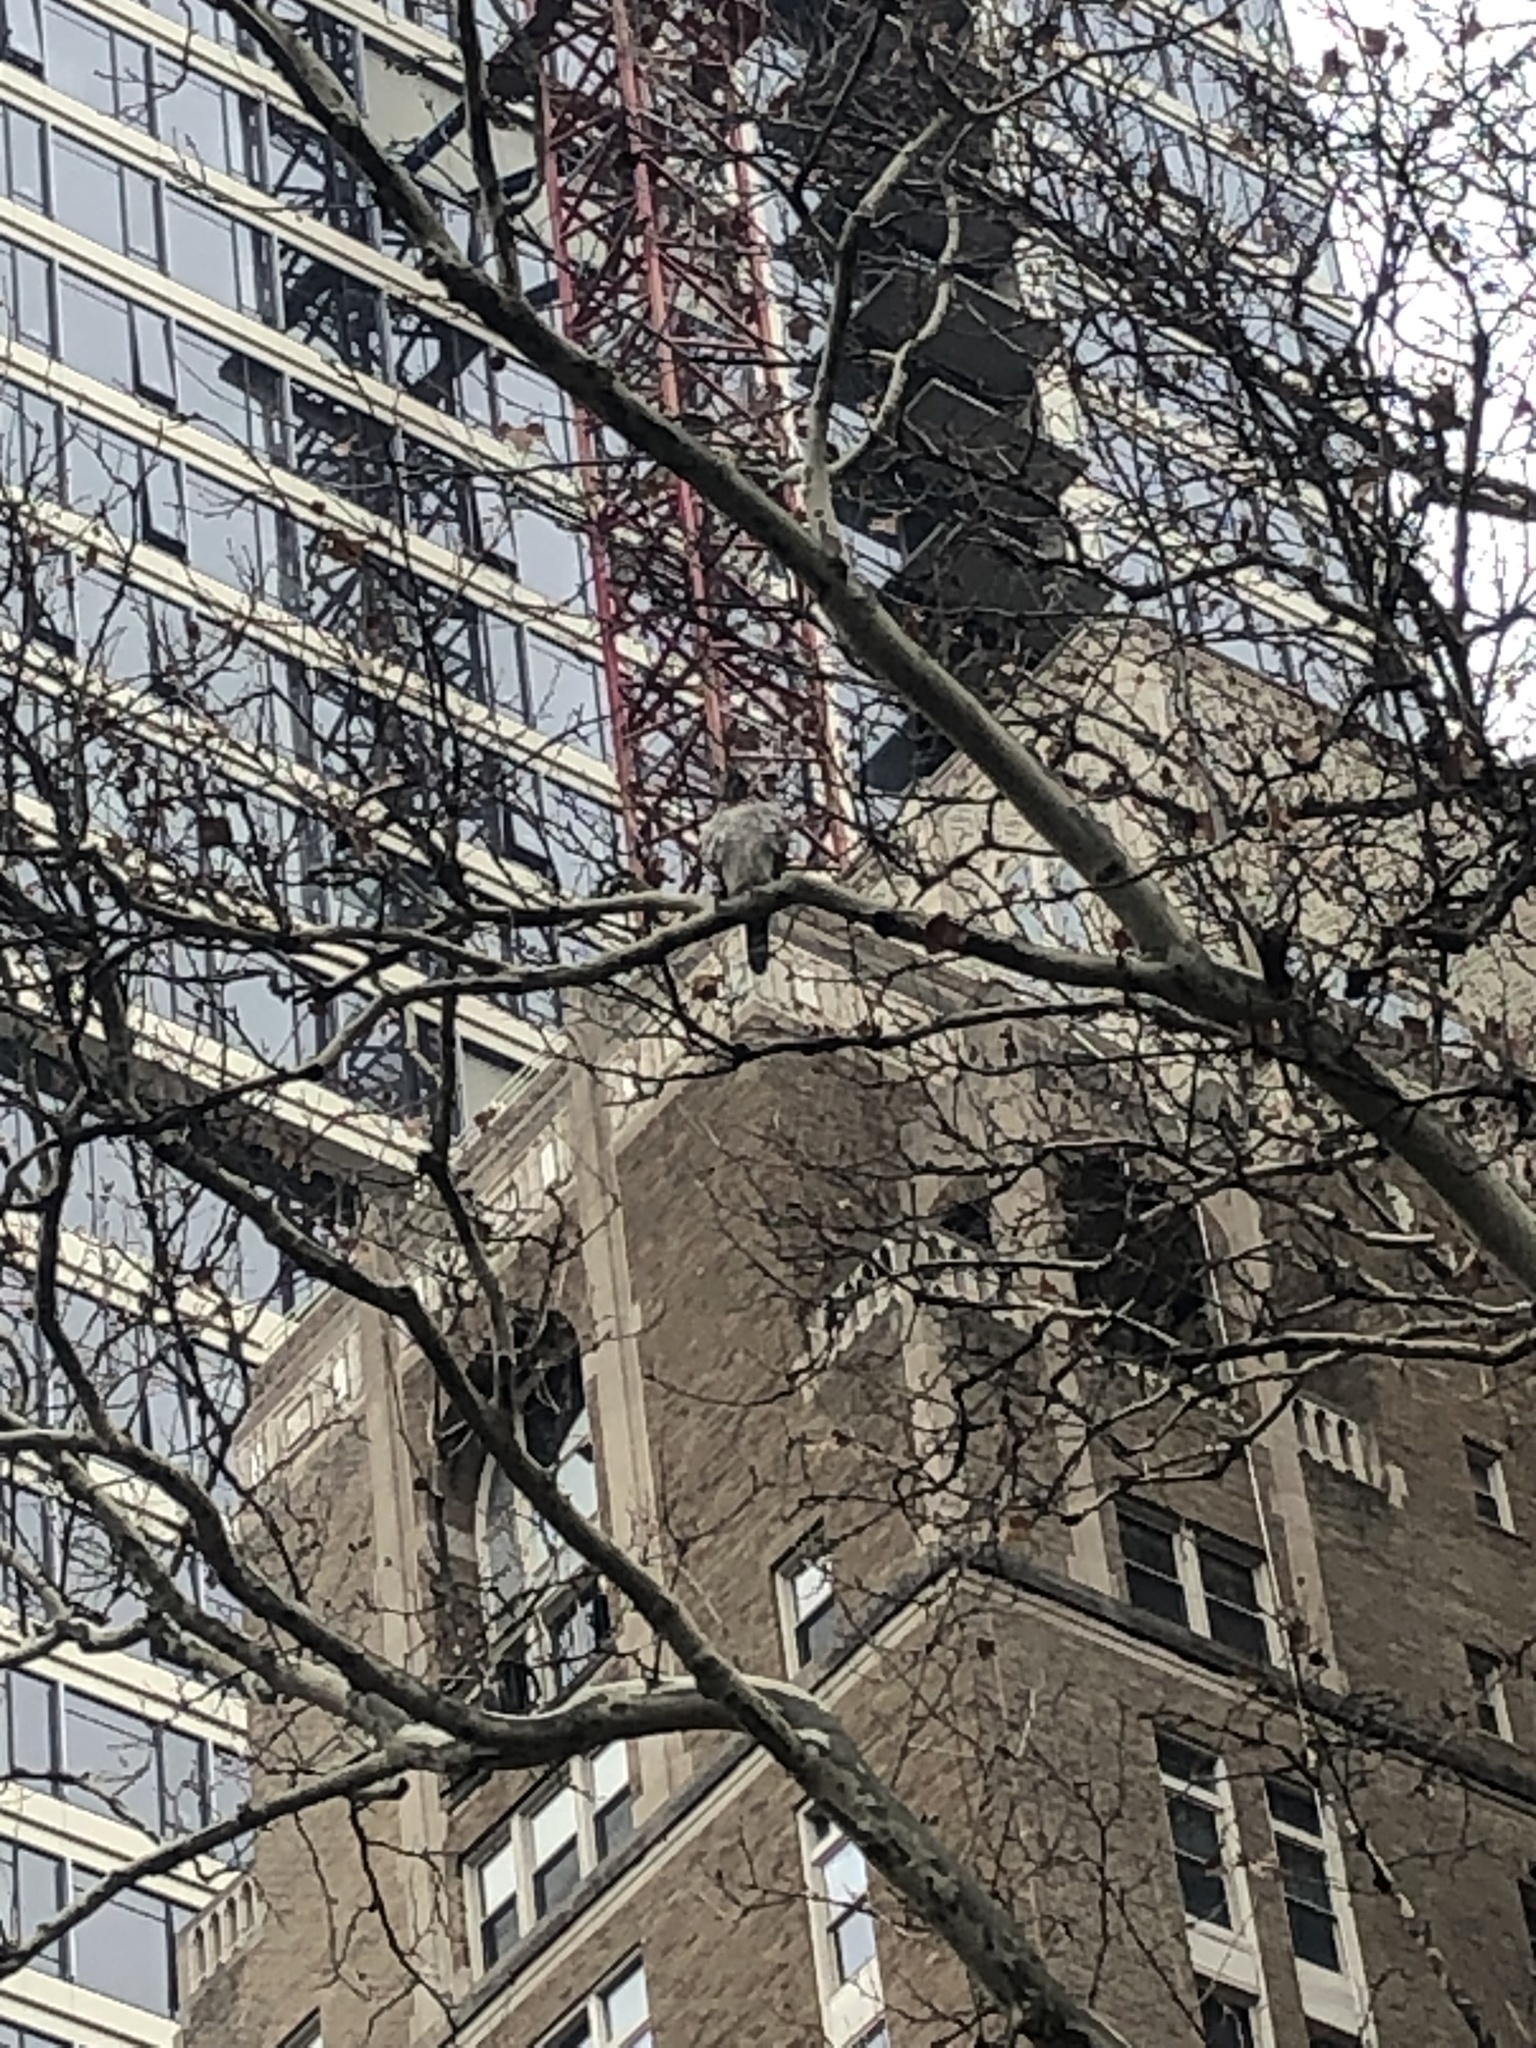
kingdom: Animalia
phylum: Chordata
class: Aves
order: Accipitriformes
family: Accipitridae
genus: Accipiter
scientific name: Accipiter cooperii
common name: Cooper's hawk
